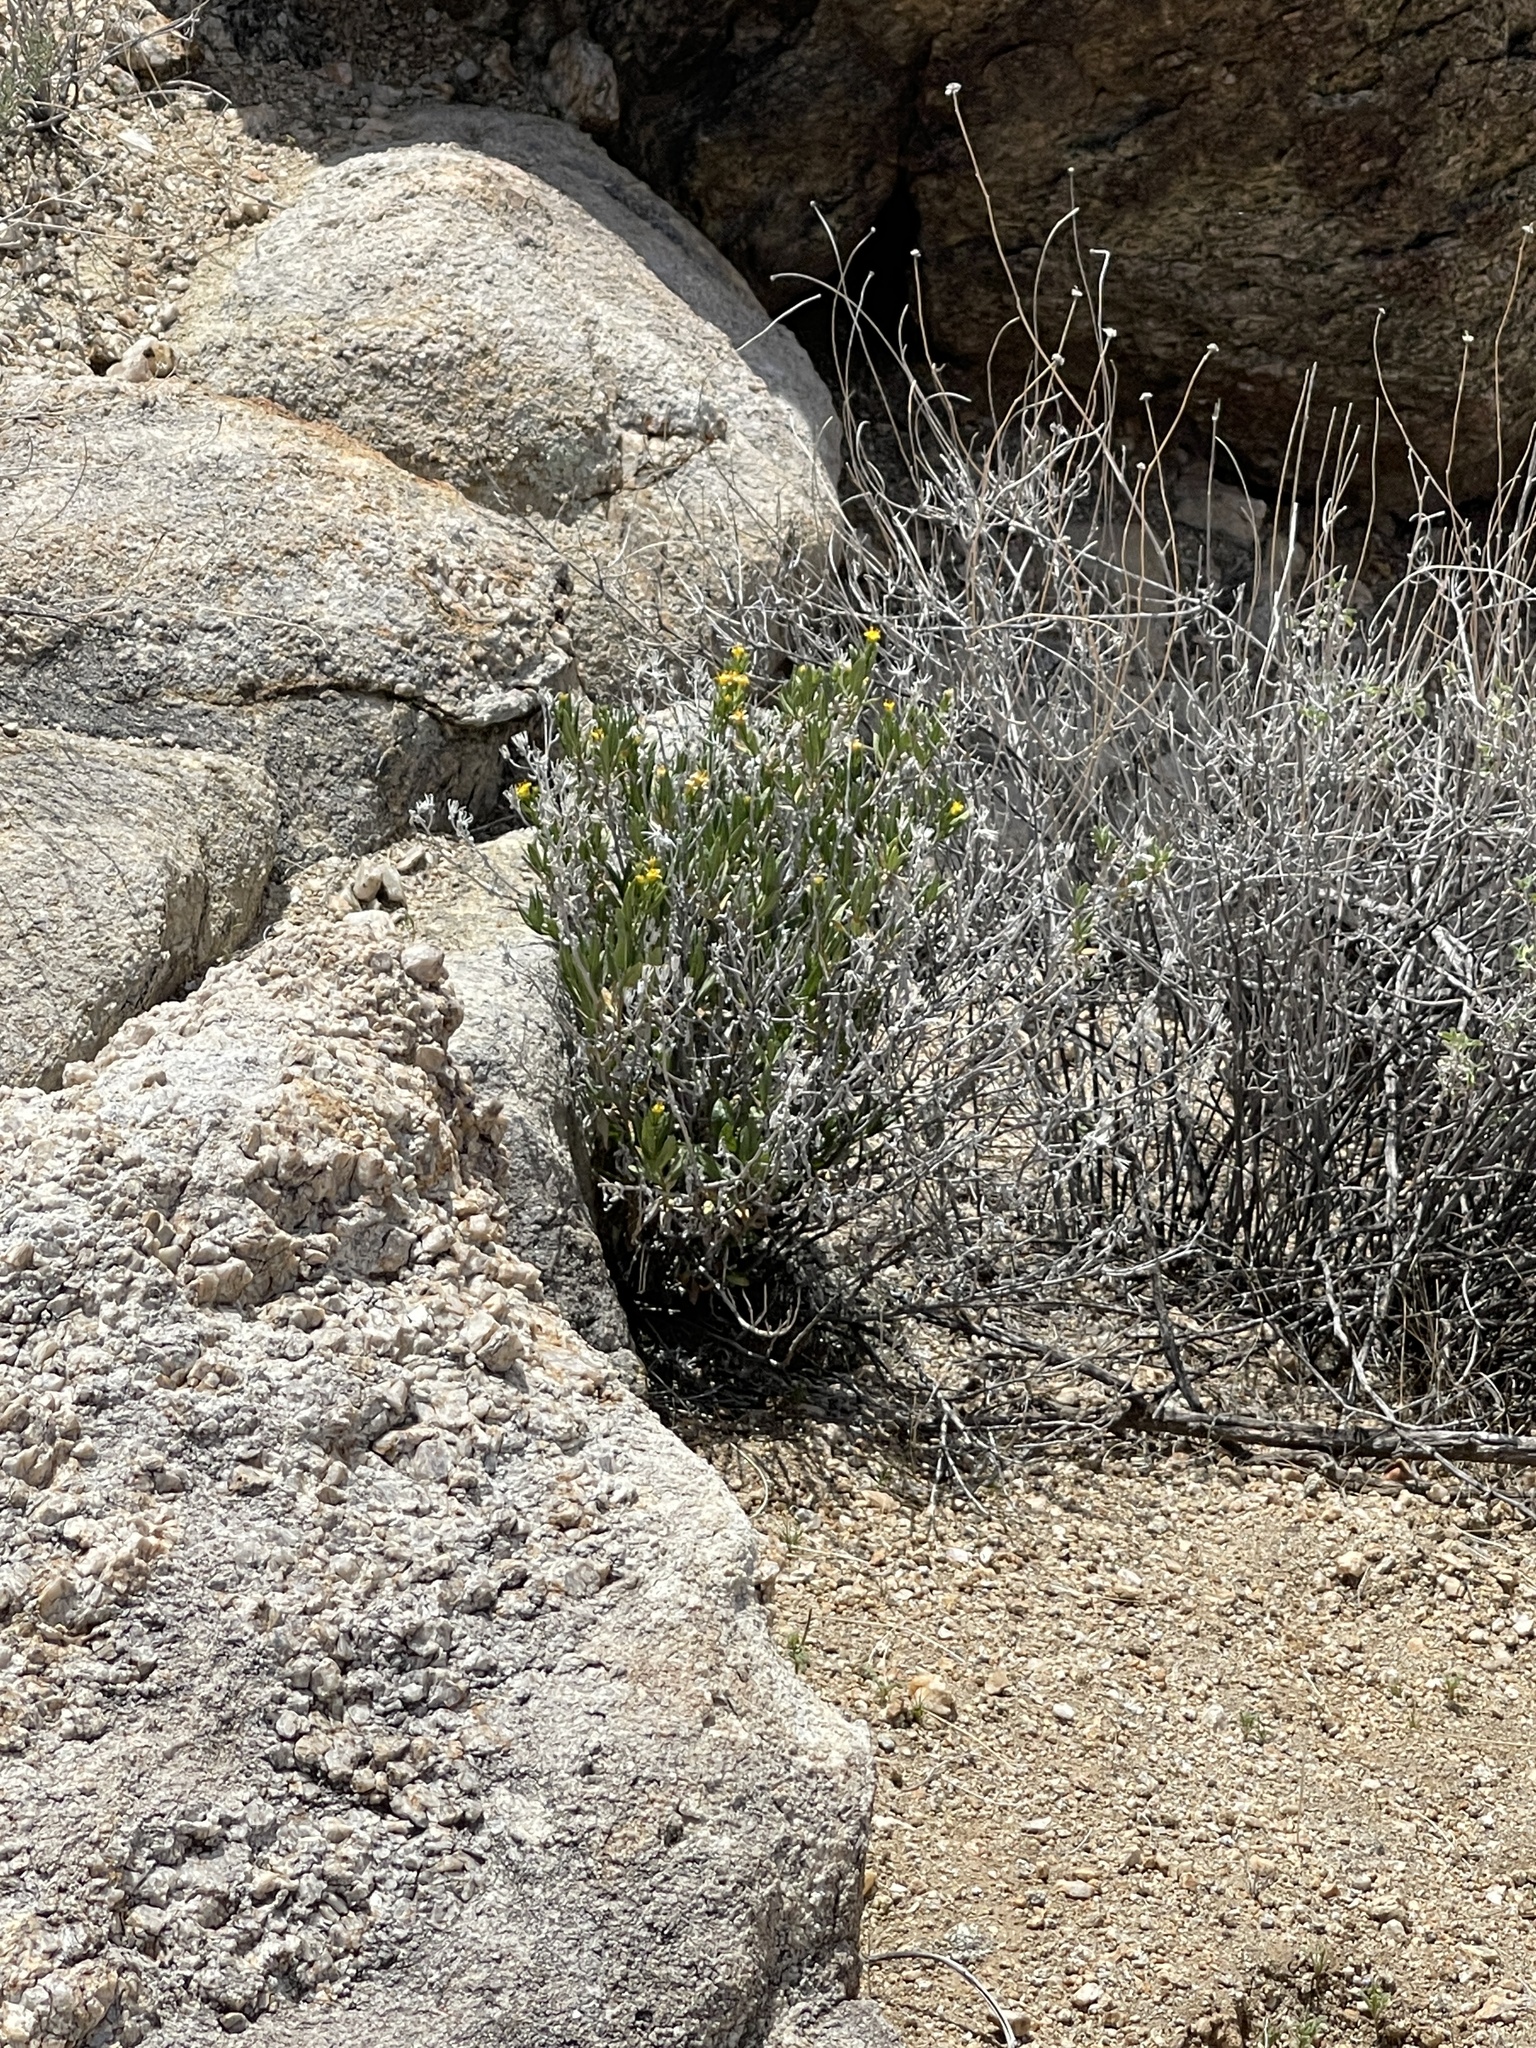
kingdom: Plantae
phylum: Tracheophyta
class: Magnoliopsida
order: Asterales
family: Asteraceae
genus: Trixis
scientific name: Trixis californica
